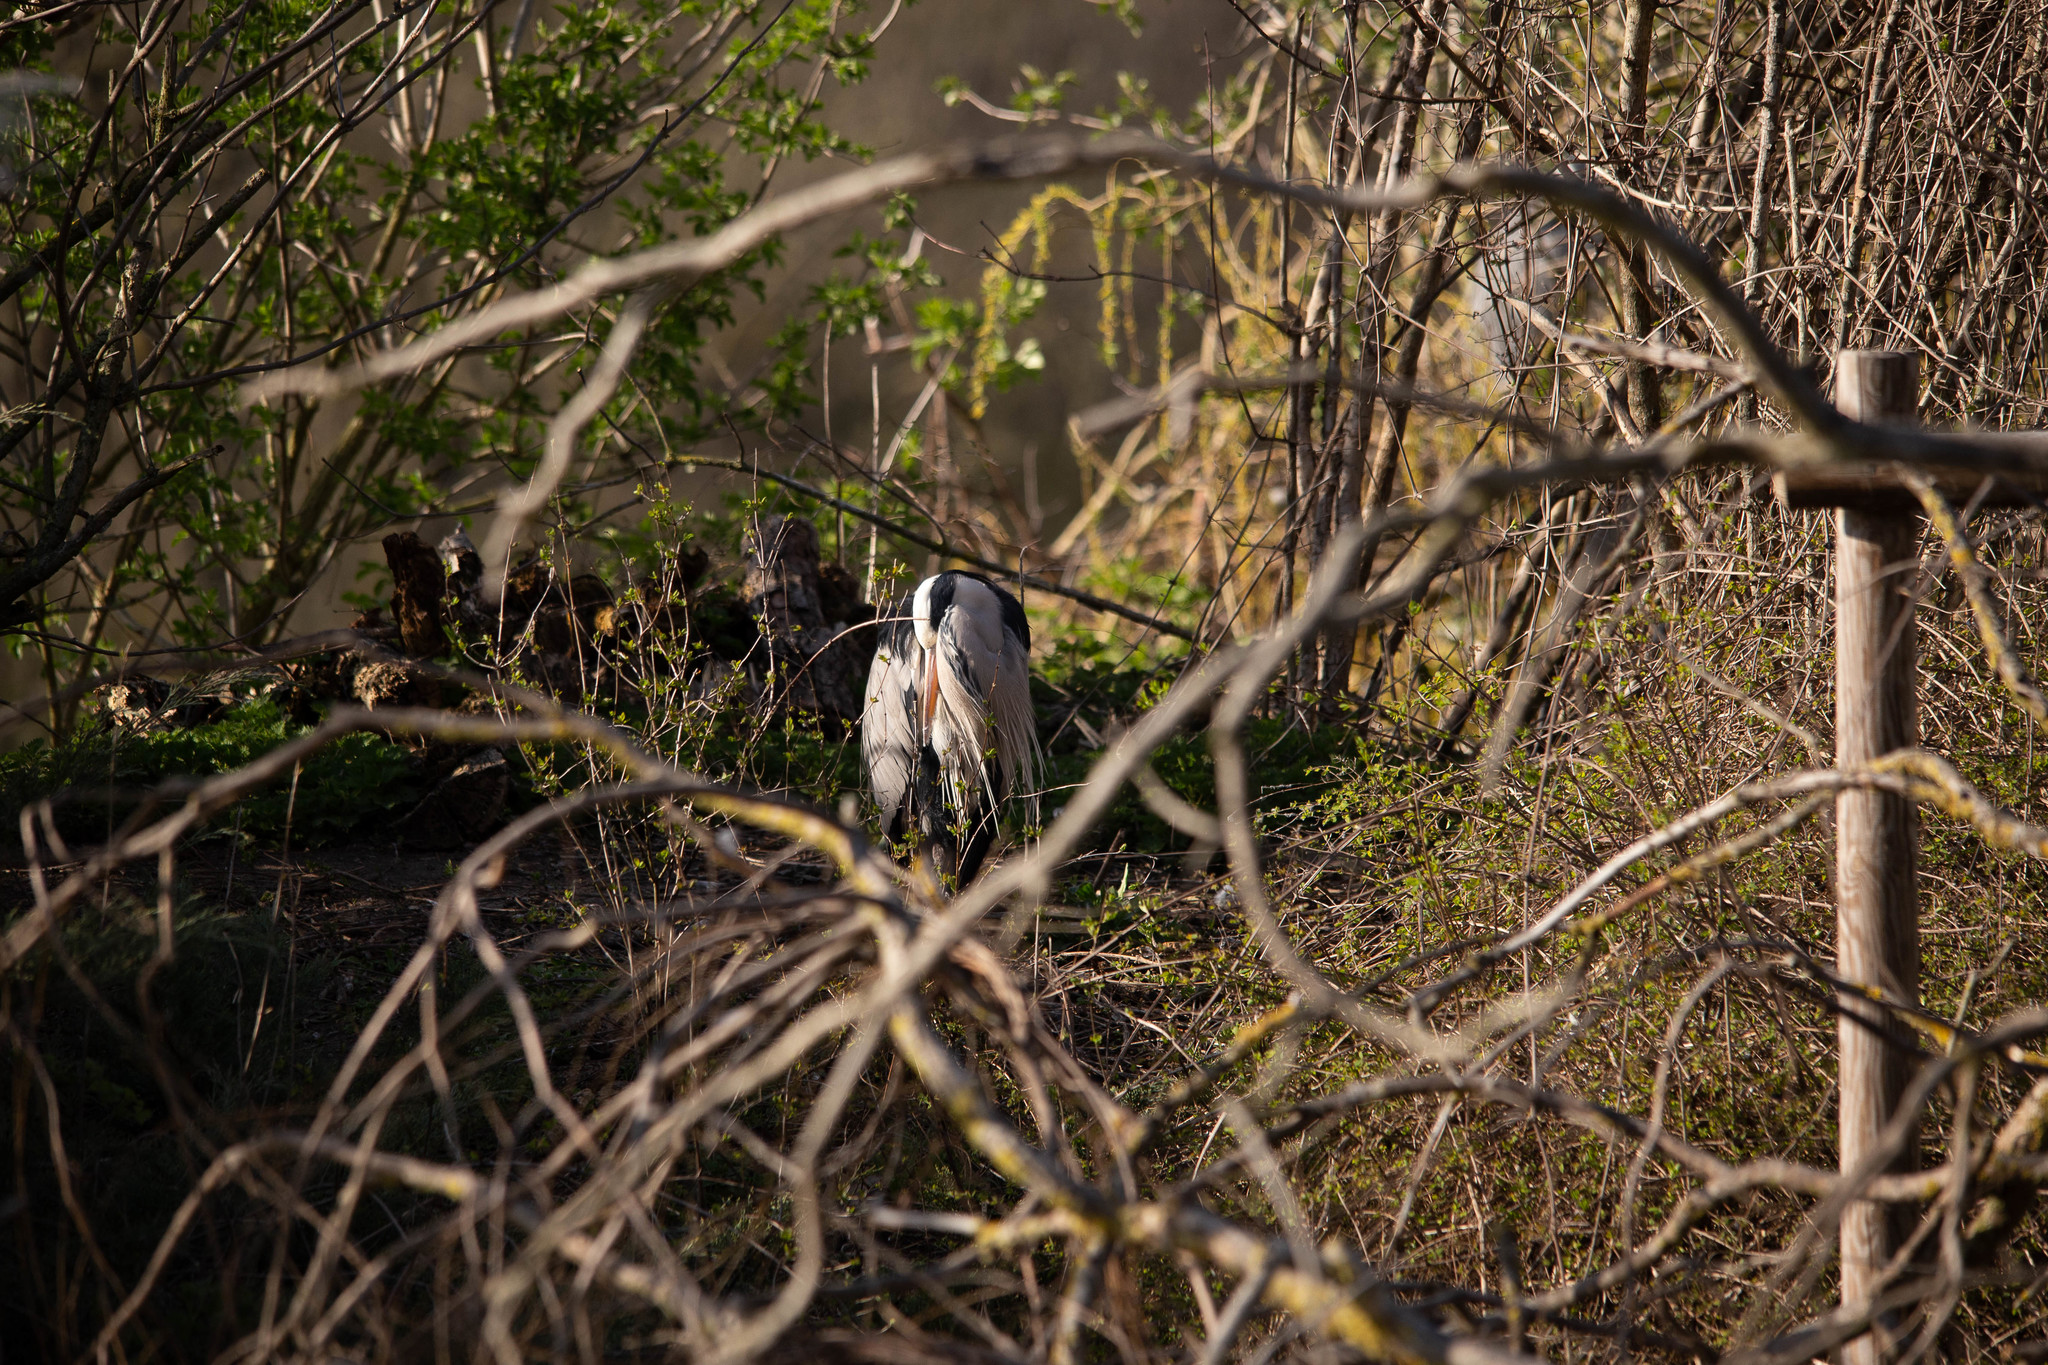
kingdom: Animalia
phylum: Chordata
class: Aves
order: Pelecaniformes
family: Ardeidae
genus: Ardea
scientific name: Ardea cinerea
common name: Grey heron
